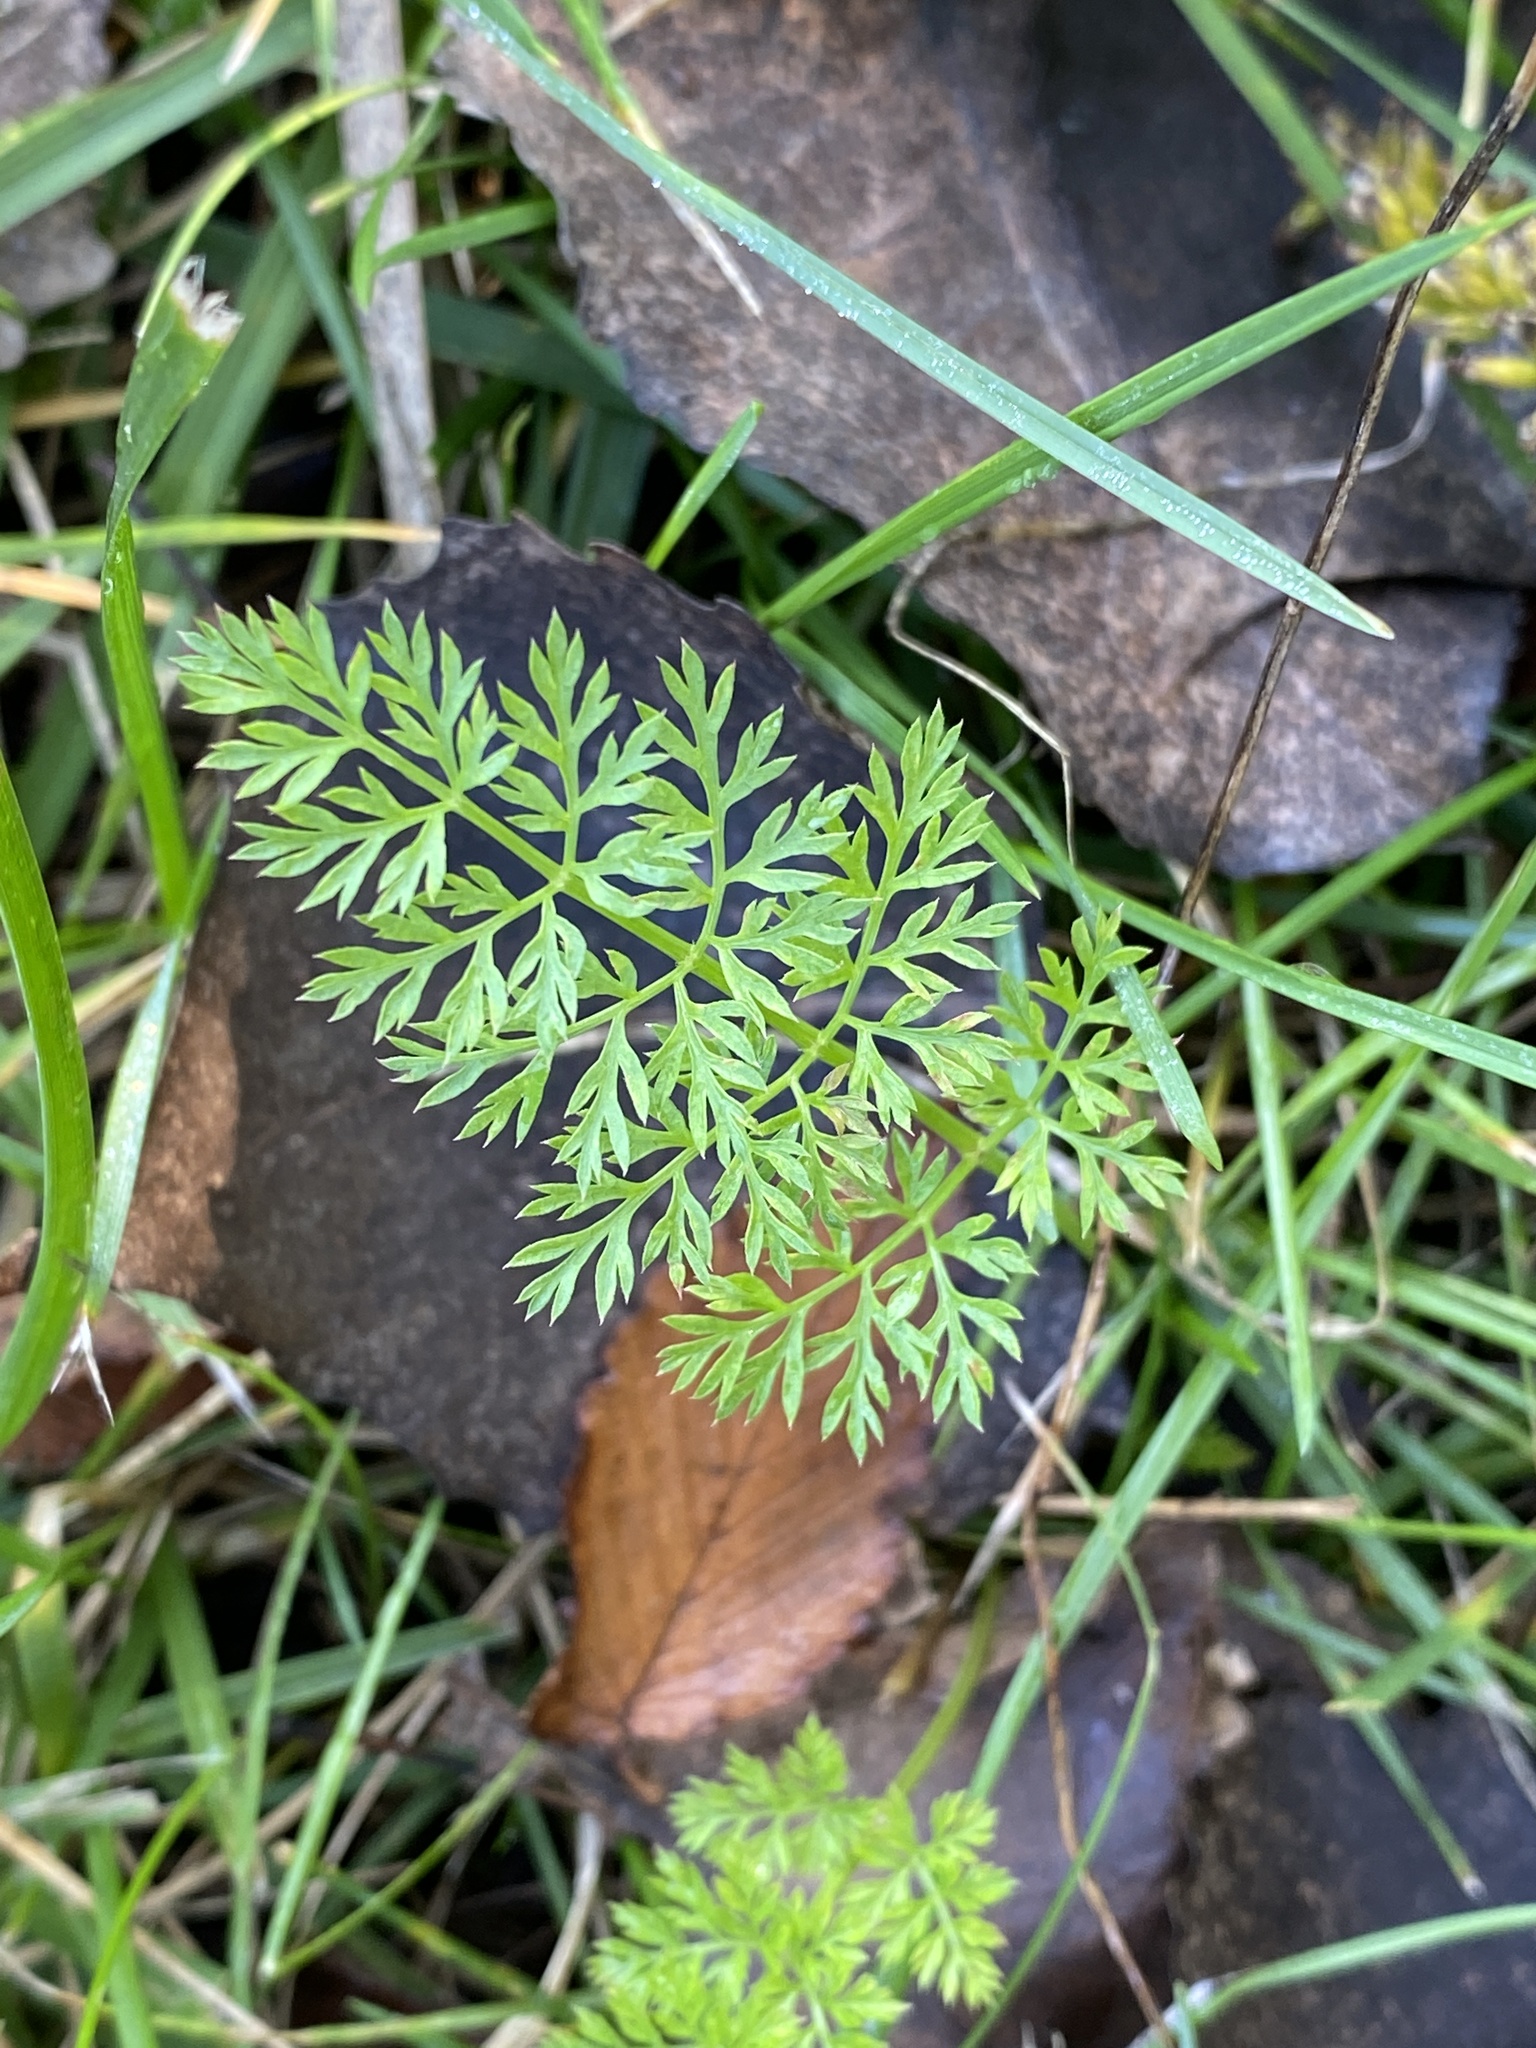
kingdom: Plantae
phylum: Tracheophyta
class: Magnoliopsida
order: Apiales
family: Apiaceae
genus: Daucus
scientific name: Daucus carota
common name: Wild carrot
